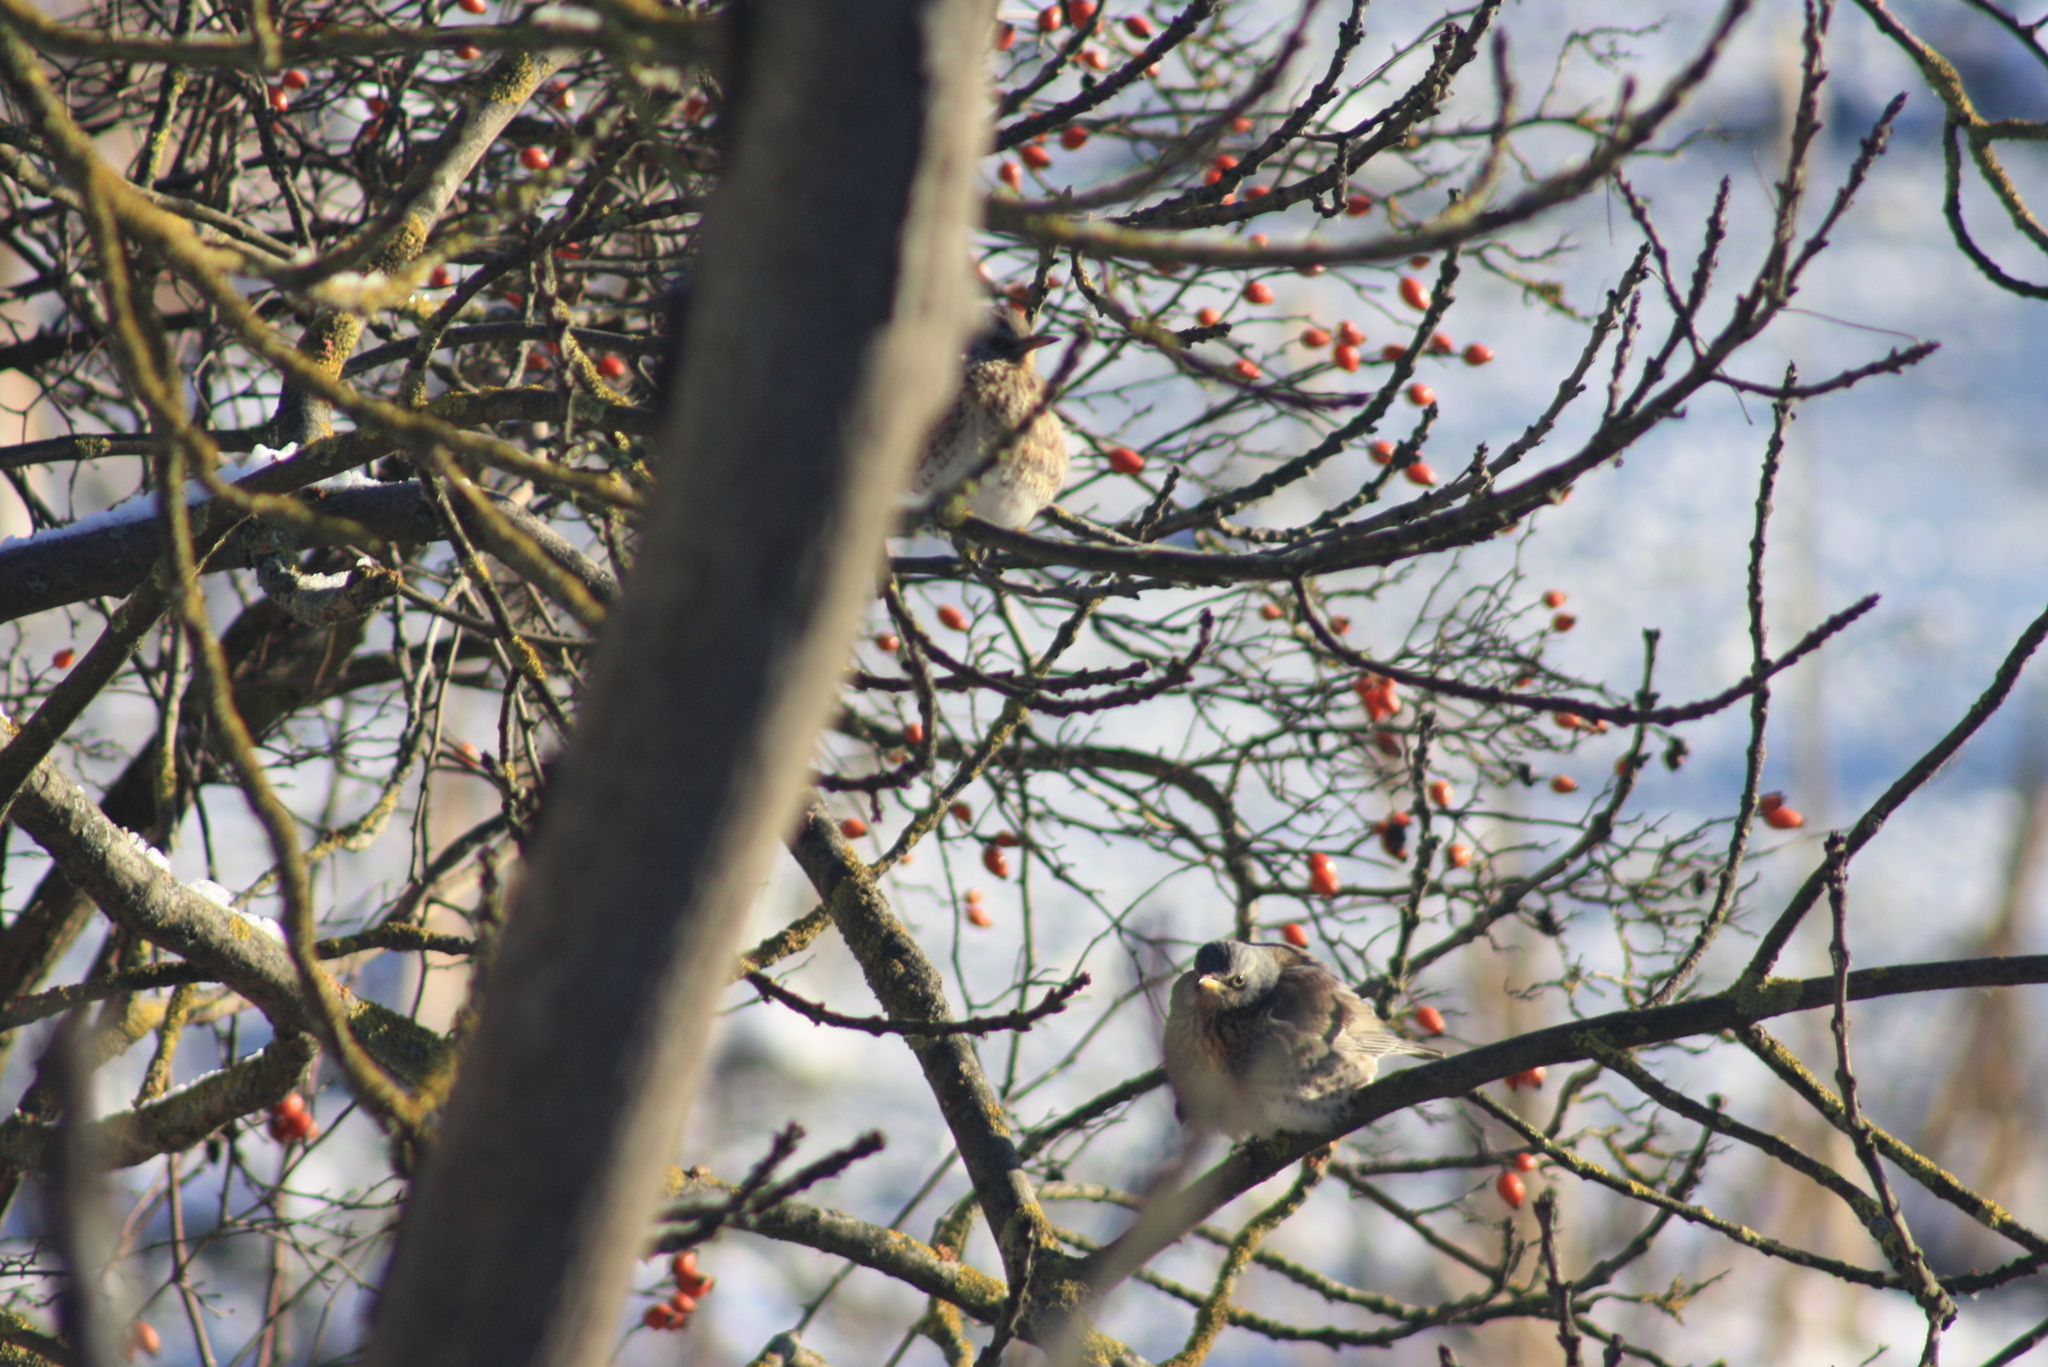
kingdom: Animalia
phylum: Chordata
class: Aves
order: Passeriformes
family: Turdidae
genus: Turdus
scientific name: Turdus pilaris
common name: Fieldfare
